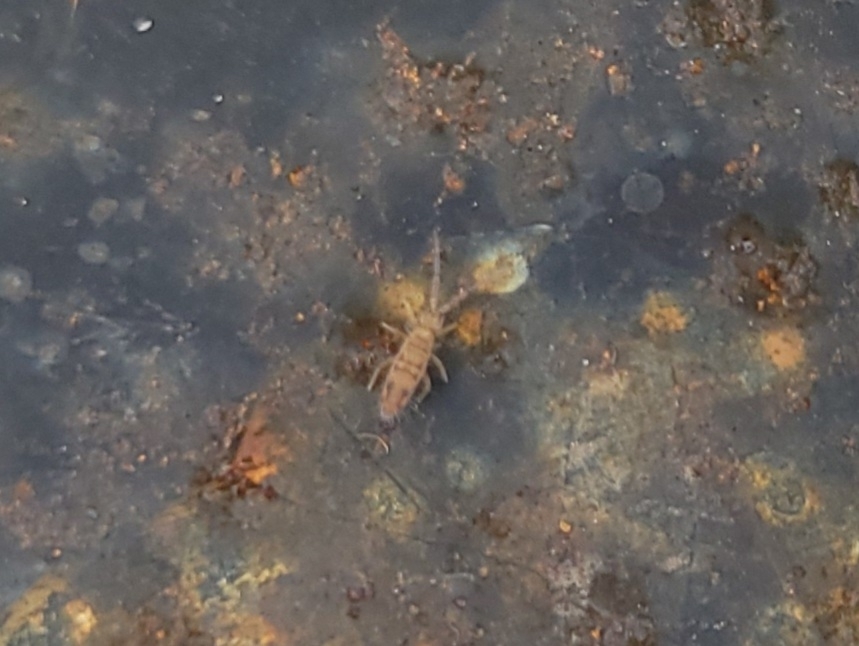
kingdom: Animalia
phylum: Arthropoda
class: Collembola
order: Entomobryomorpha
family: Entomobryidae
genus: Entomobrya
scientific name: Entomobrya nivalis
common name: Cosmopolitan springtail
